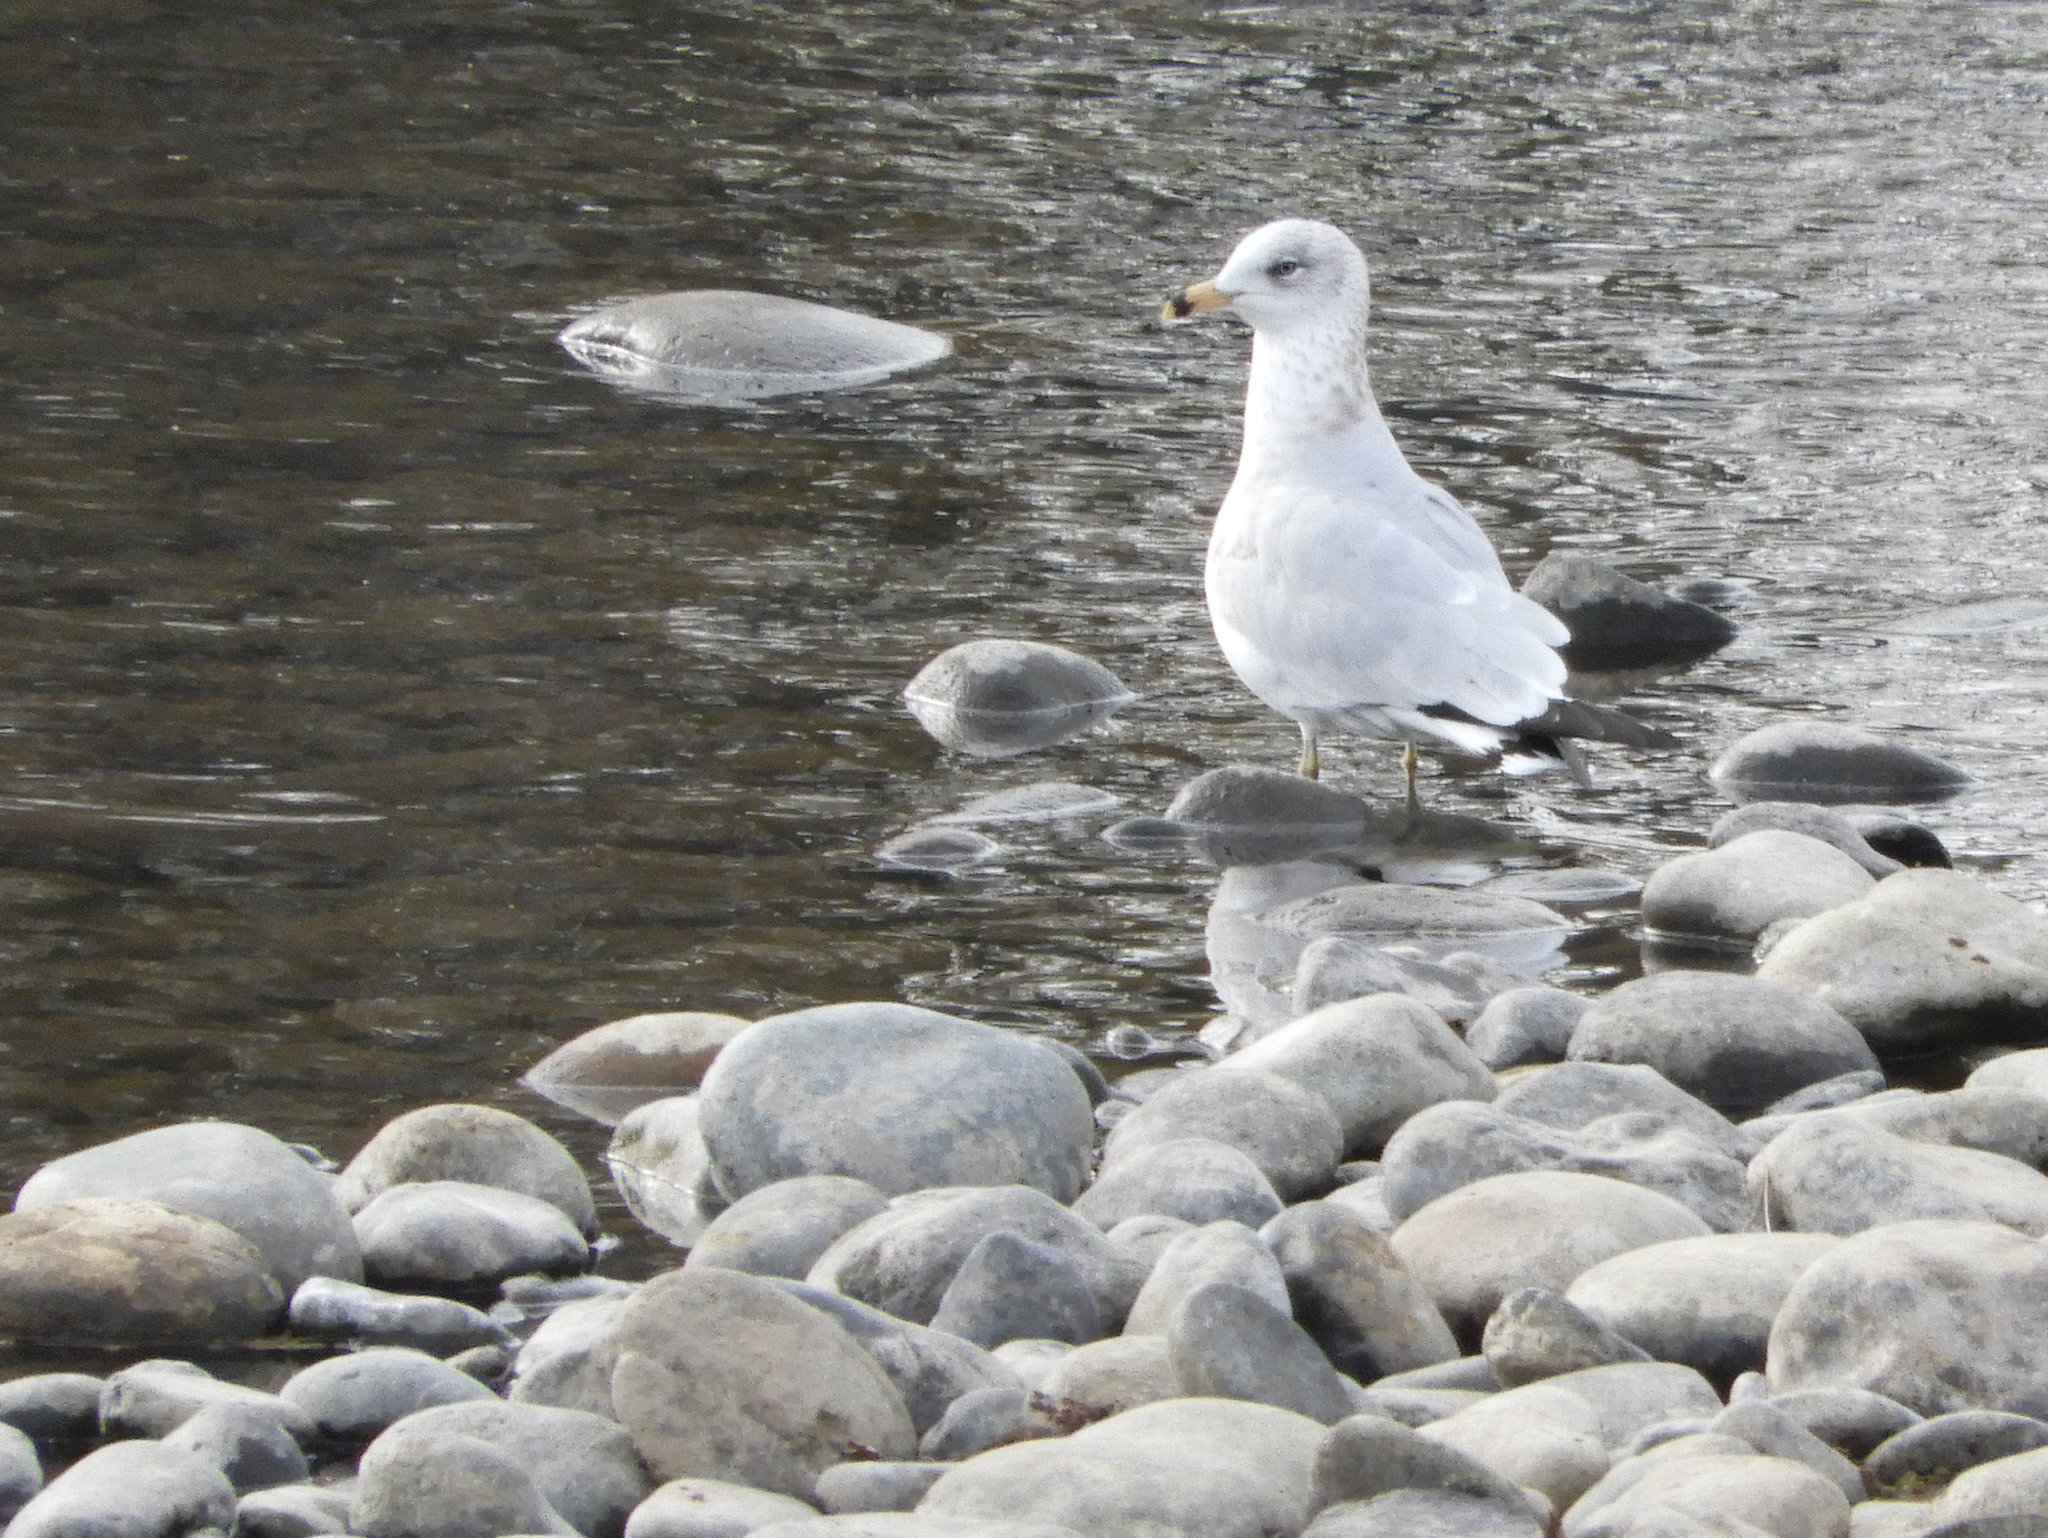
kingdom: Animalia
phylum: Chordata
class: Aves
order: Charadriiformes
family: Laridae
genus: Larus
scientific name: Larus delawarensis
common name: Ring-billed gull
